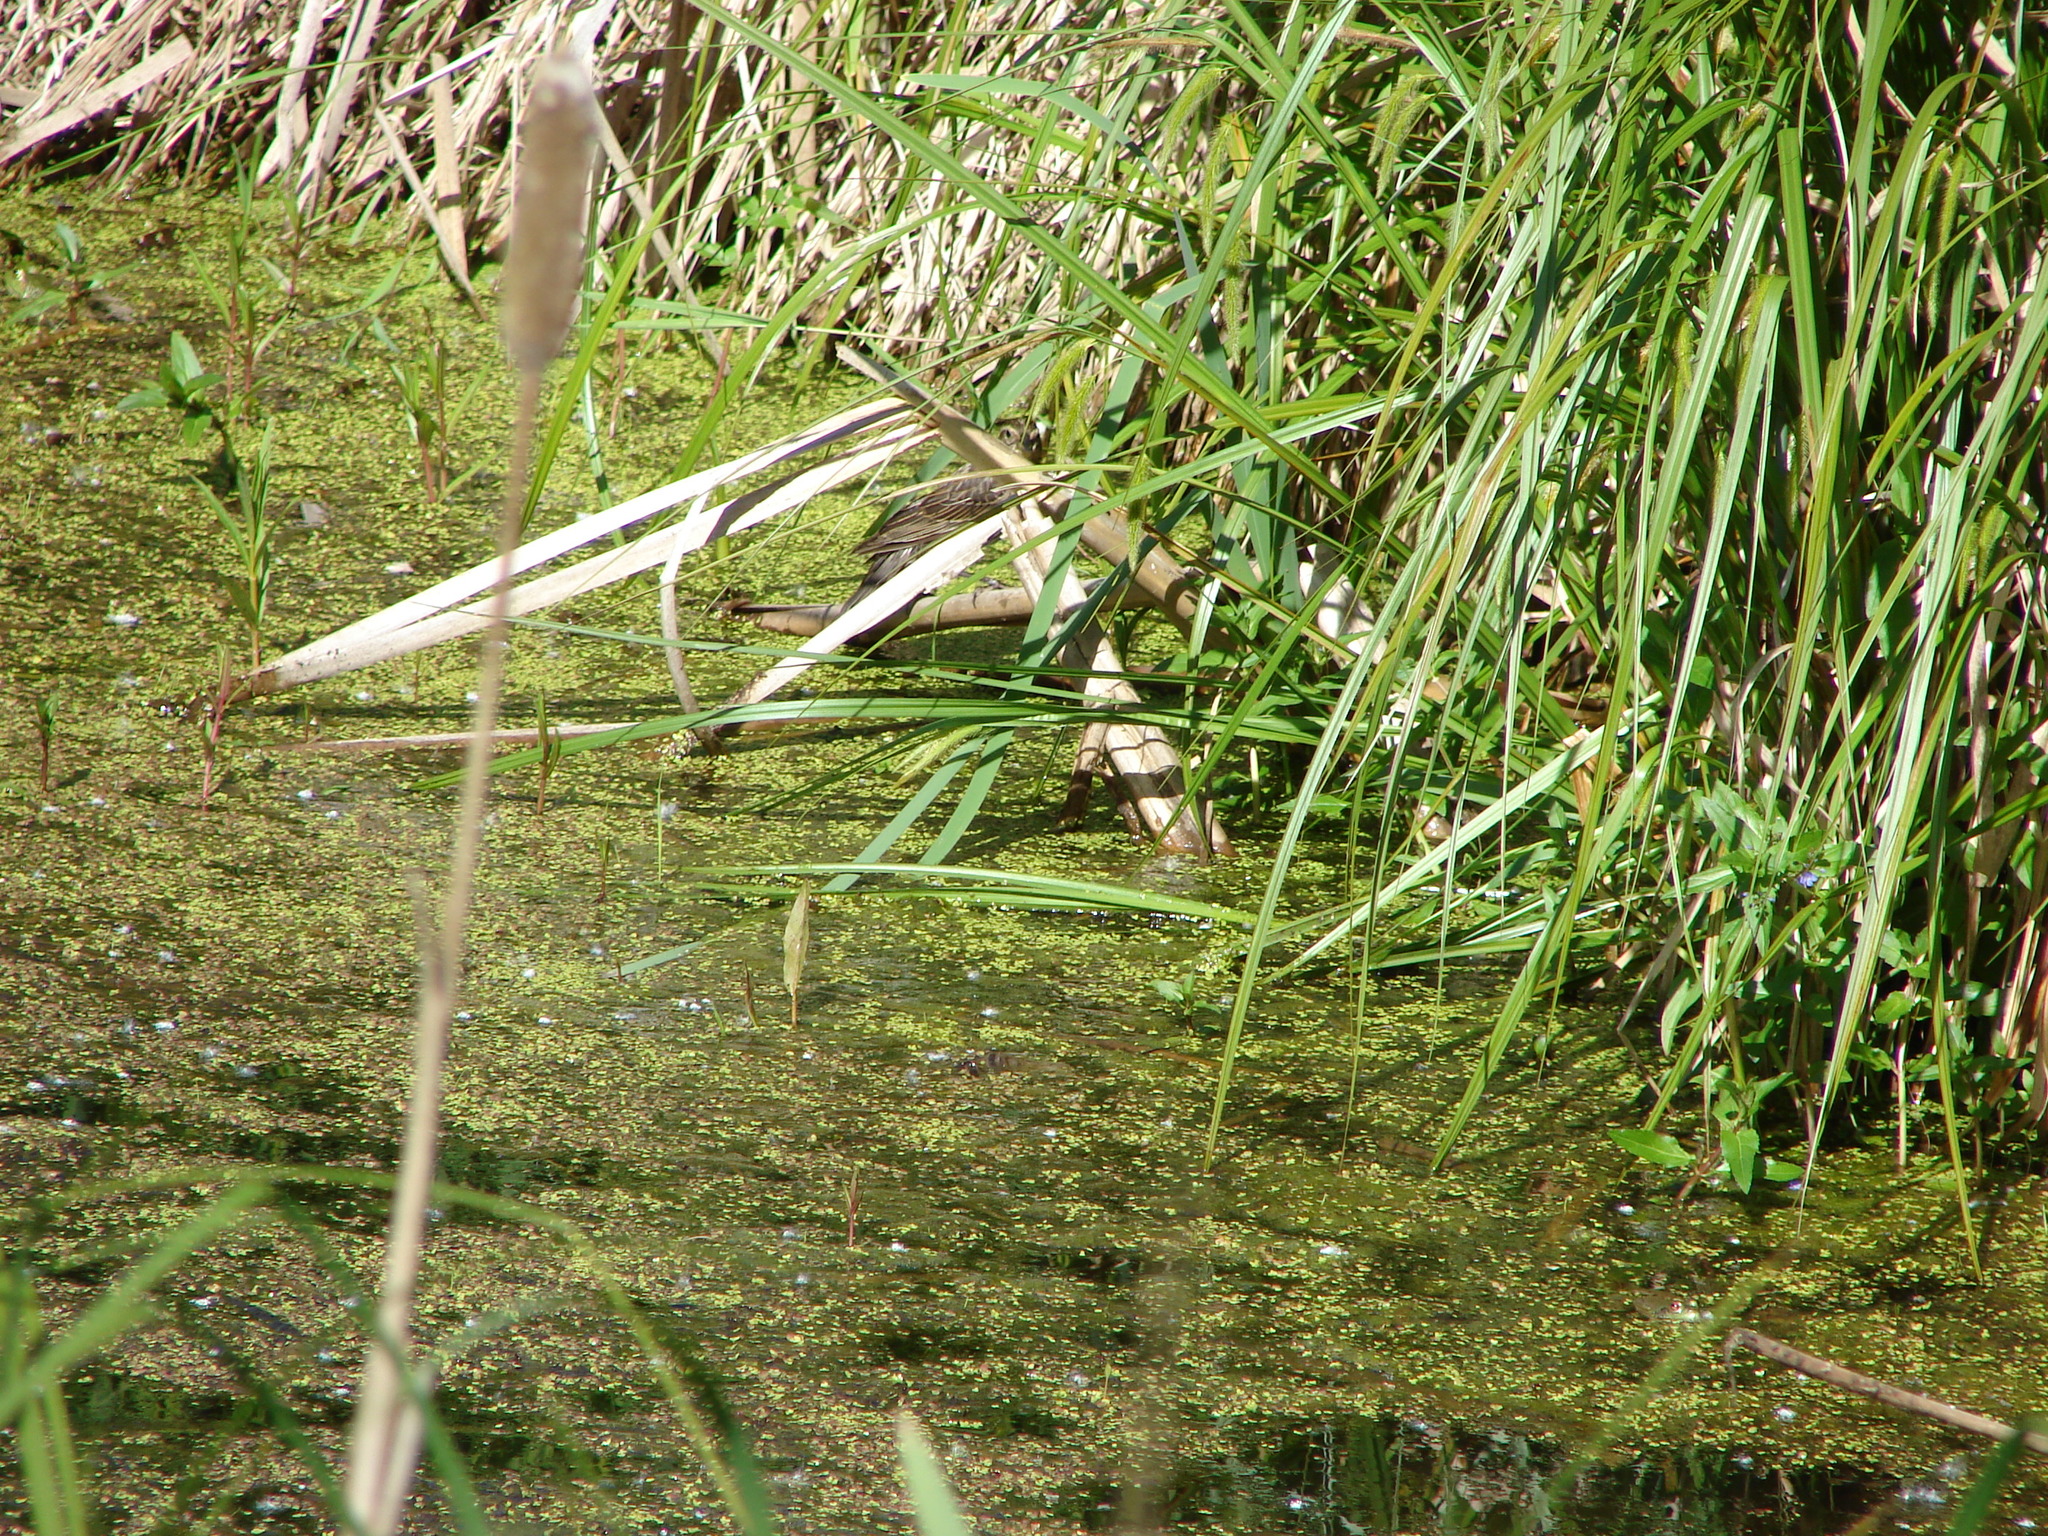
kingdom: Animalia
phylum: Chordata
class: Aves
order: Passeriformes
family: Icteridae
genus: Agelaius
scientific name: Agelaius phoeniceus
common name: Red-winged blackbird
